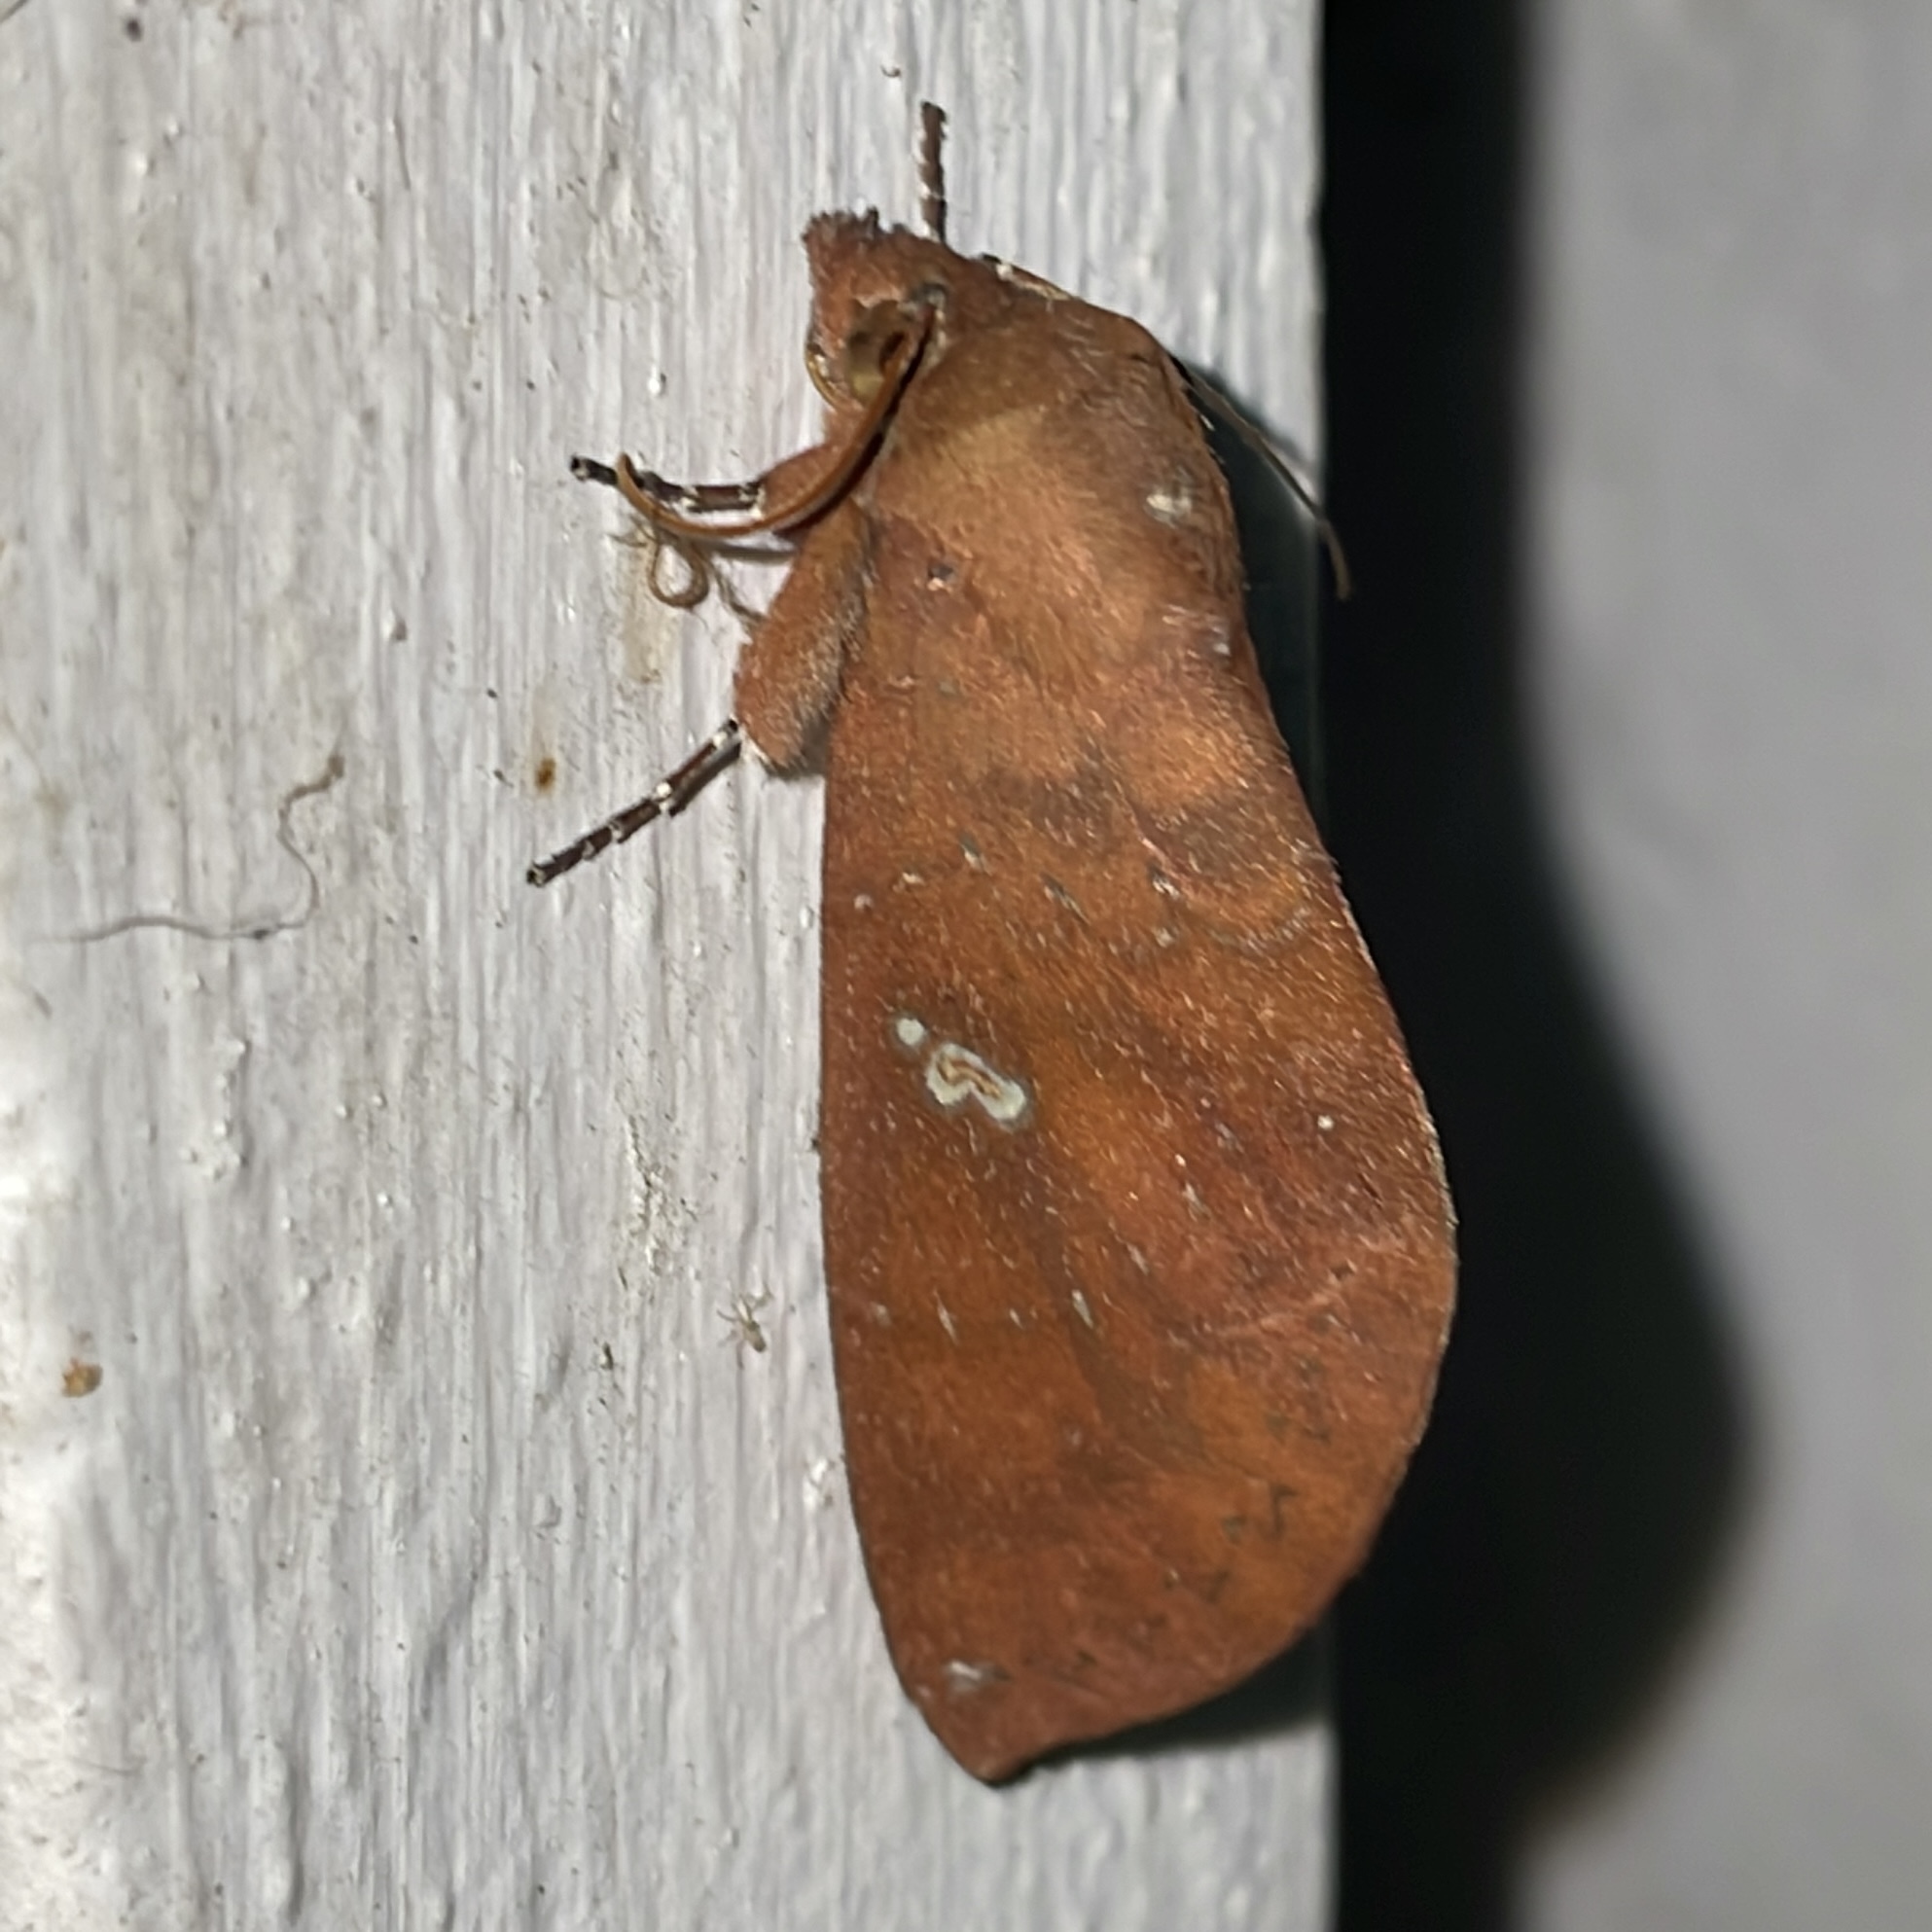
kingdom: Animalia
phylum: Arthropoda
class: Insecta
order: Lepidoptera
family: Notodontidae
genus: Hapigia
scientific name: Hapigia raatzi
